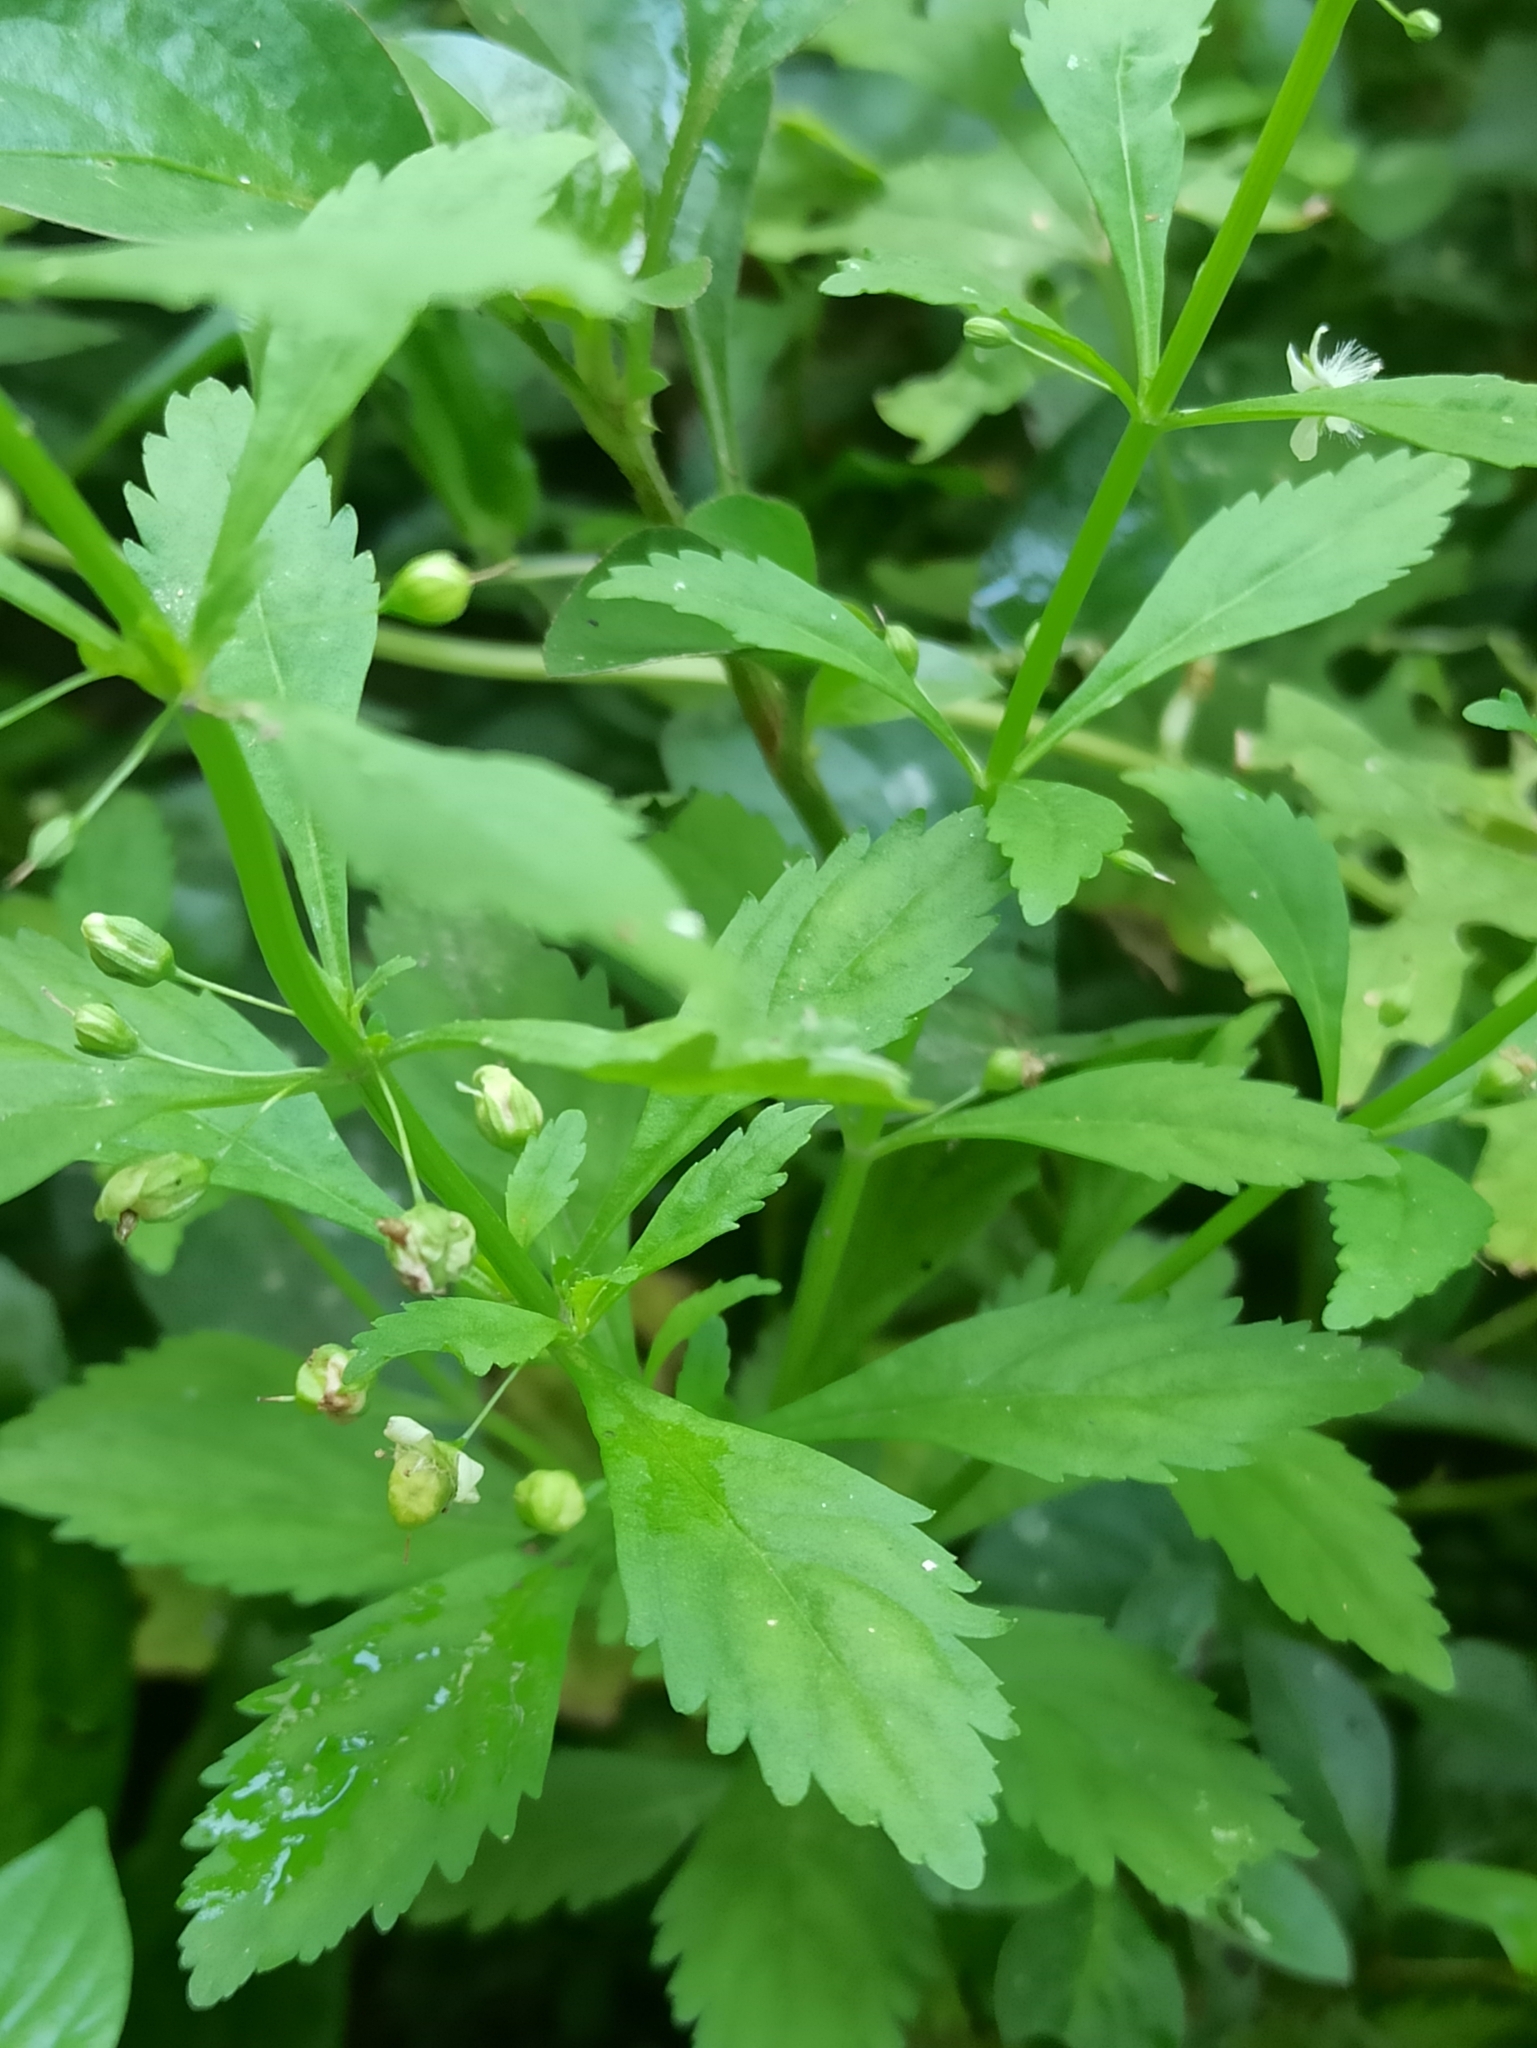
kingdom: Plantae
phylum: Tracheophyta
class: Magnoliopsida
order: Lamiales
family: Plantaginaceae
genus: Scoparia
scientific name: Scoparia dulcis
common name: Scoparia-weed
